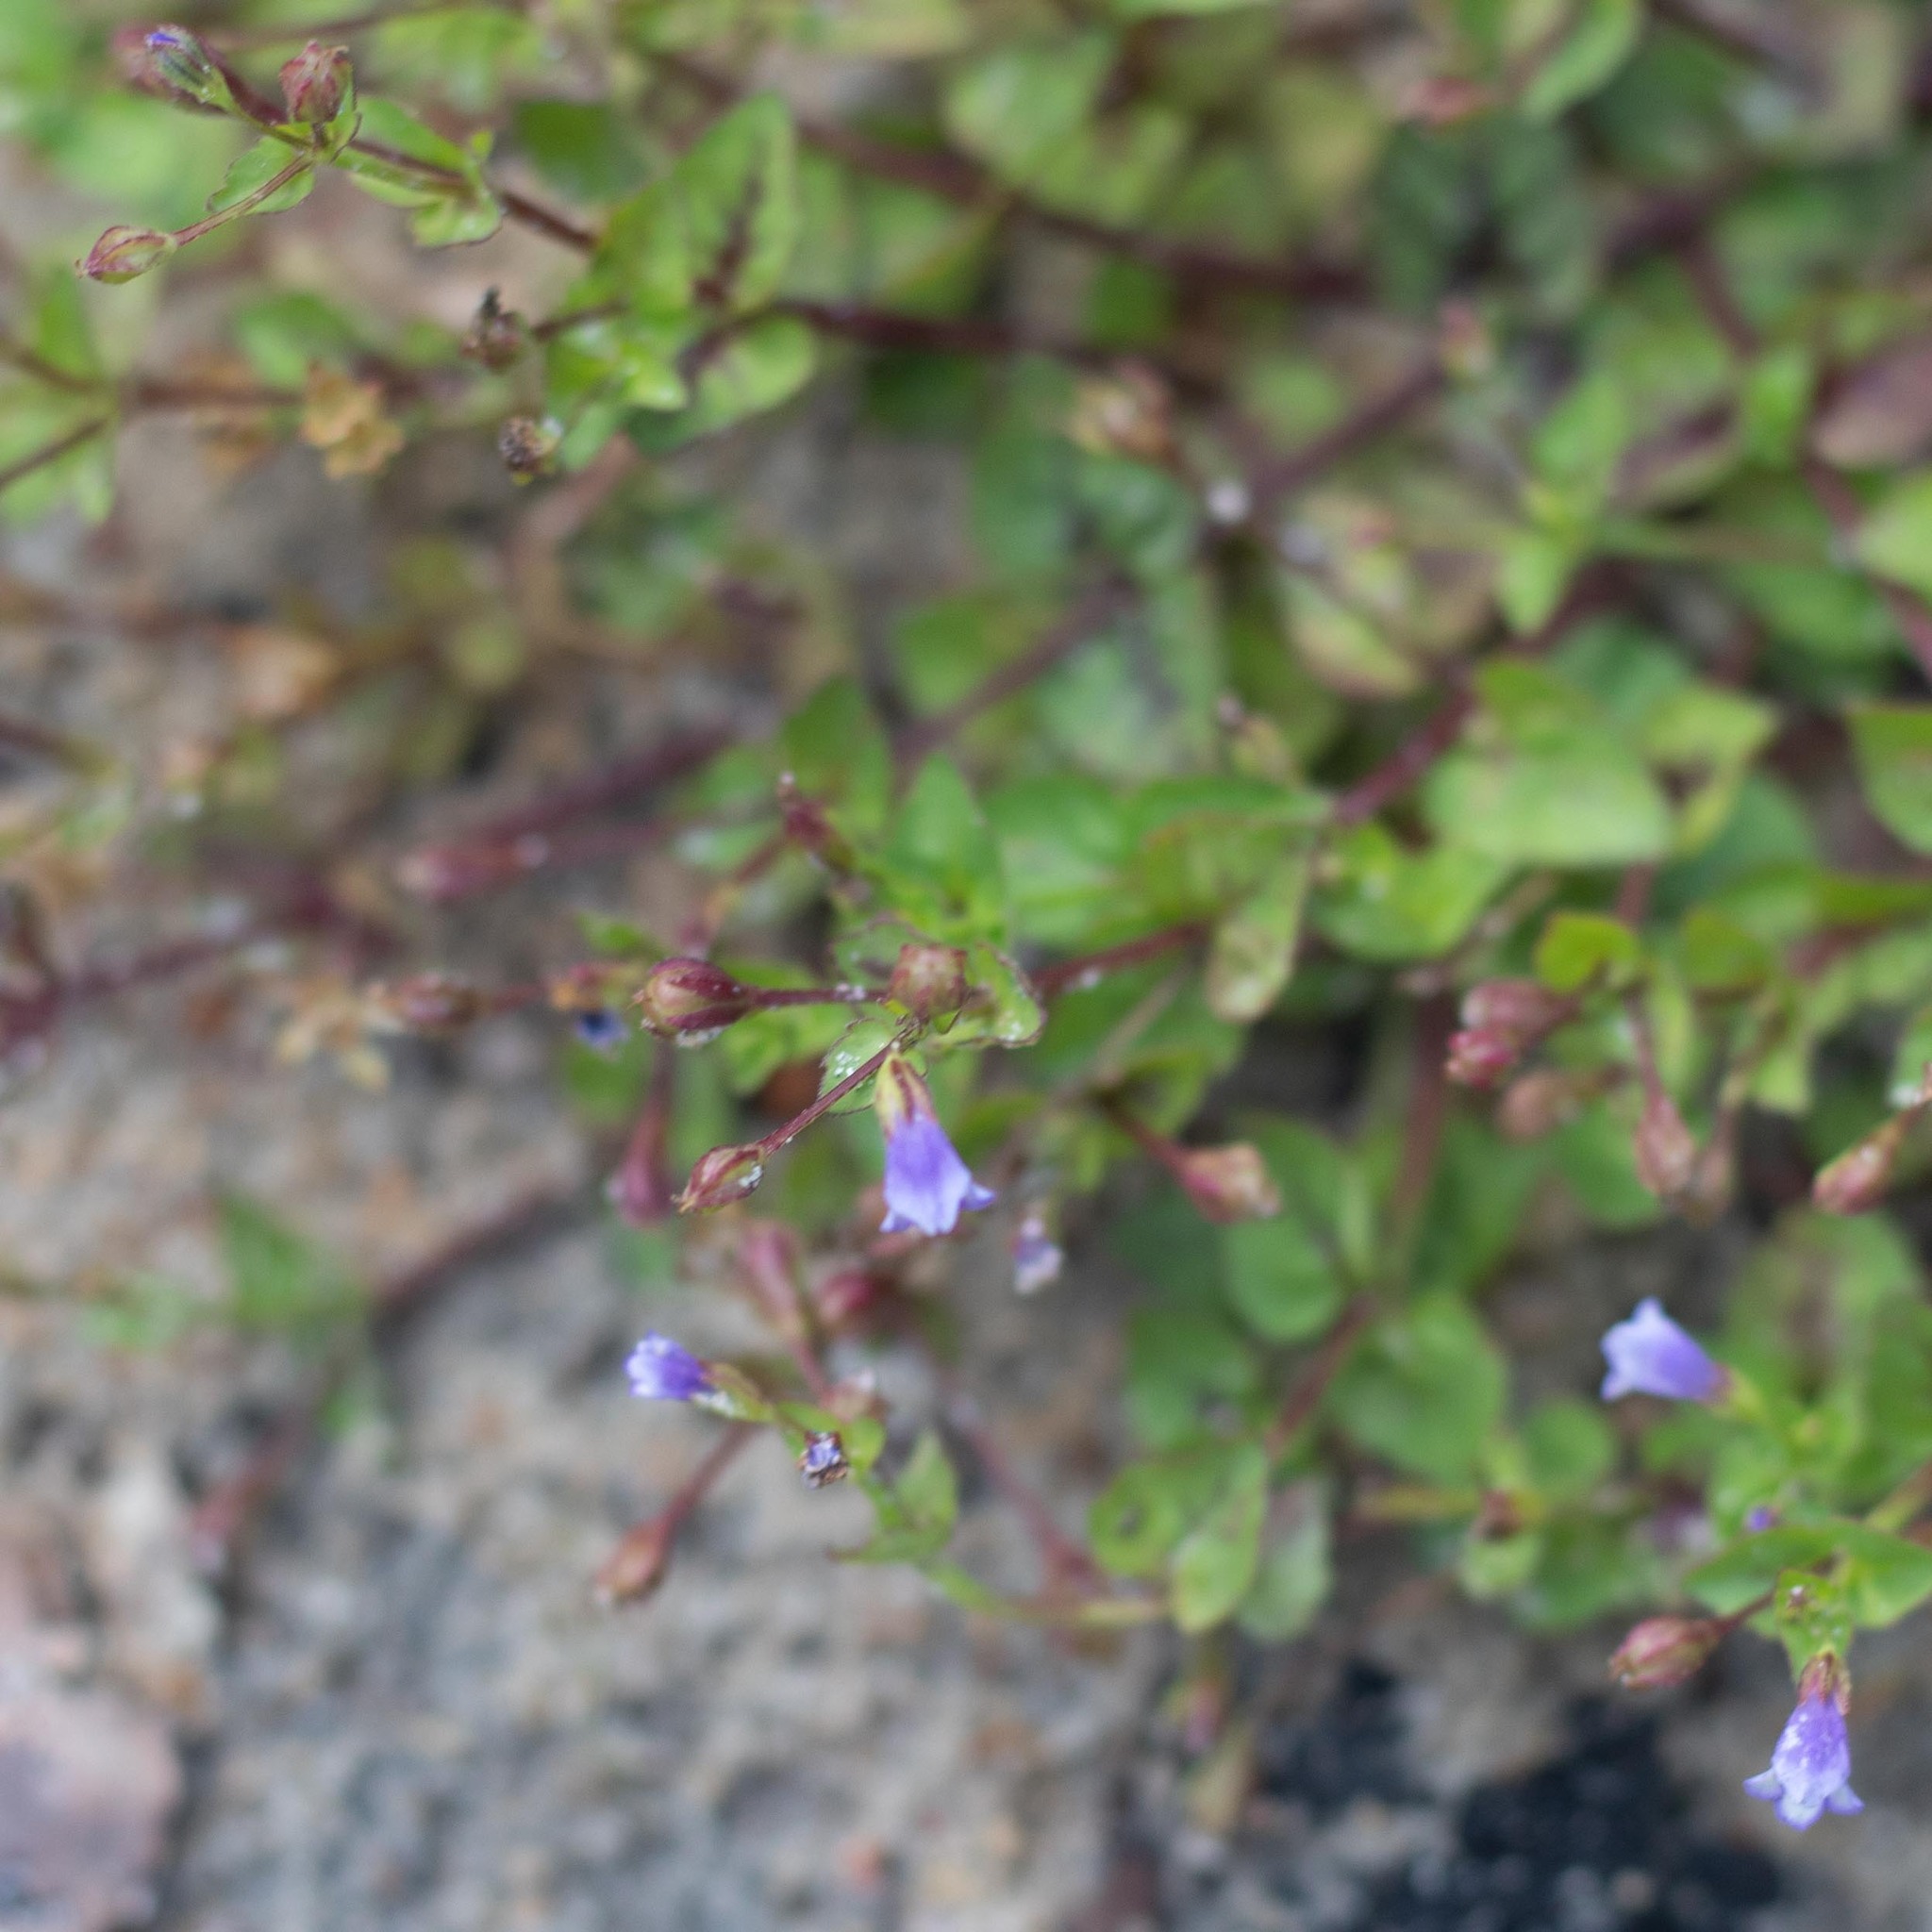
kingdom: Plantae
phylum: Tracheophyta
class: Magnoliopsida
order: Lamiales
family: Linderniaceae
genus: Torenia
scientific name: Torenia crustacea
